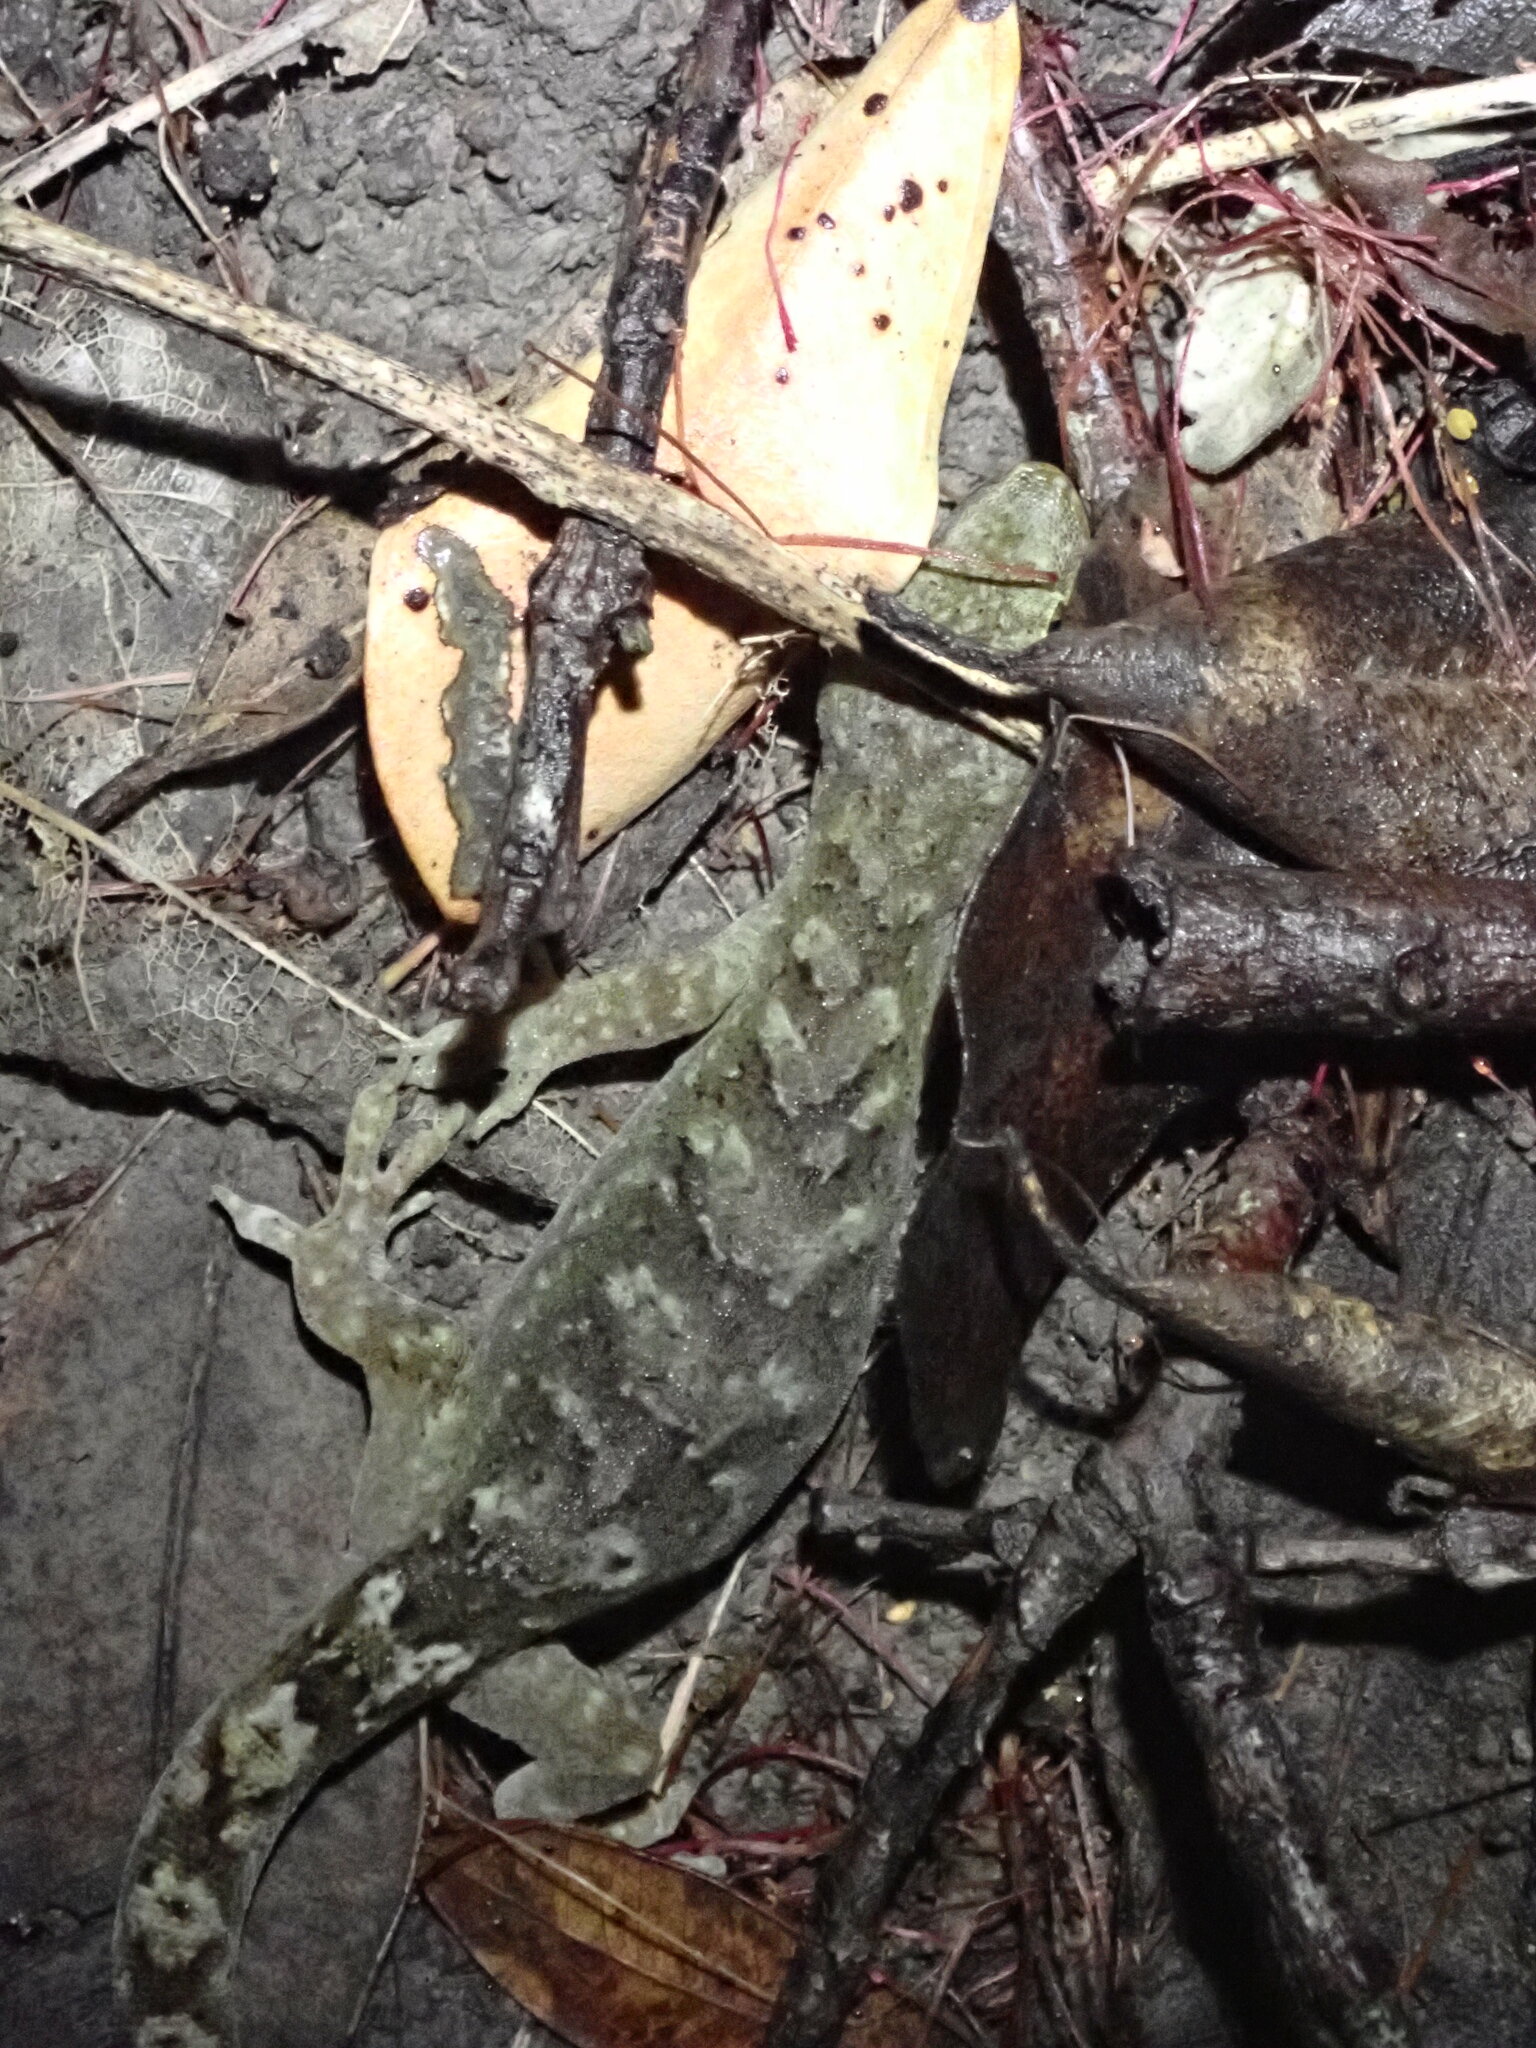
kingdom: Animalia
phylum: Chordata
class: Squamata
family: Diplodactylidae
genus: Woodworthia
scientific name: Woodworthia maculata
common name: Raukawa gecko
